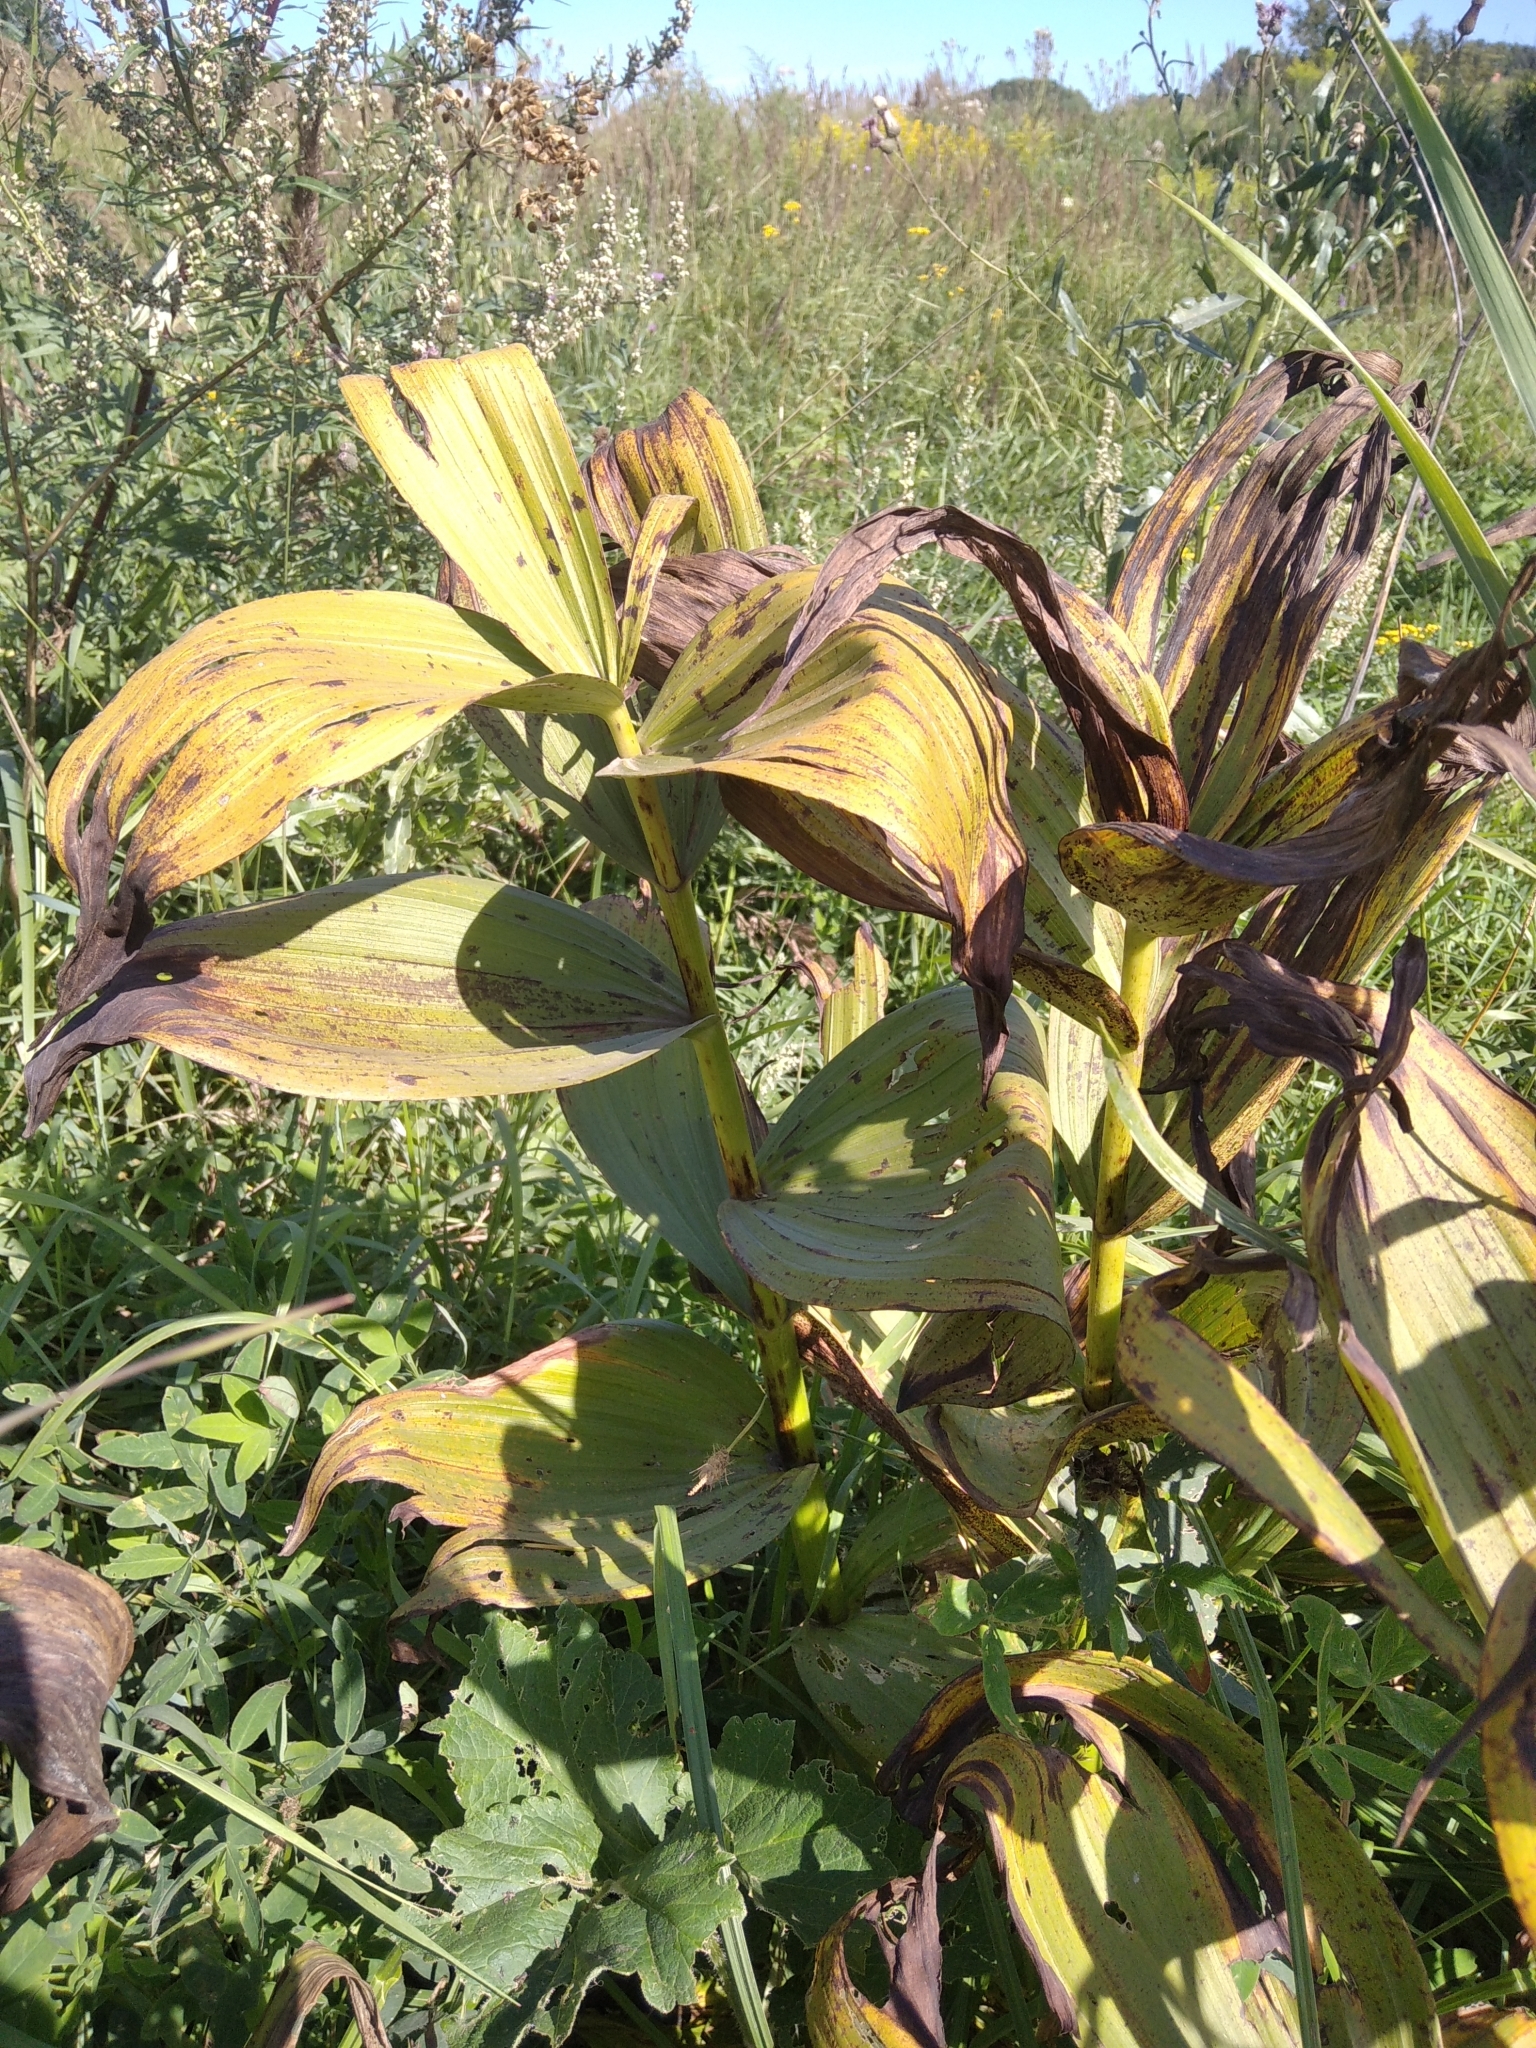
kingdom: Plantae
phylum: Tracheophyta
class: Liliopsida
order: Liliales
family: Melanthiaceae
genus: Veratrum
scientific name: Veratrum lobelianum
